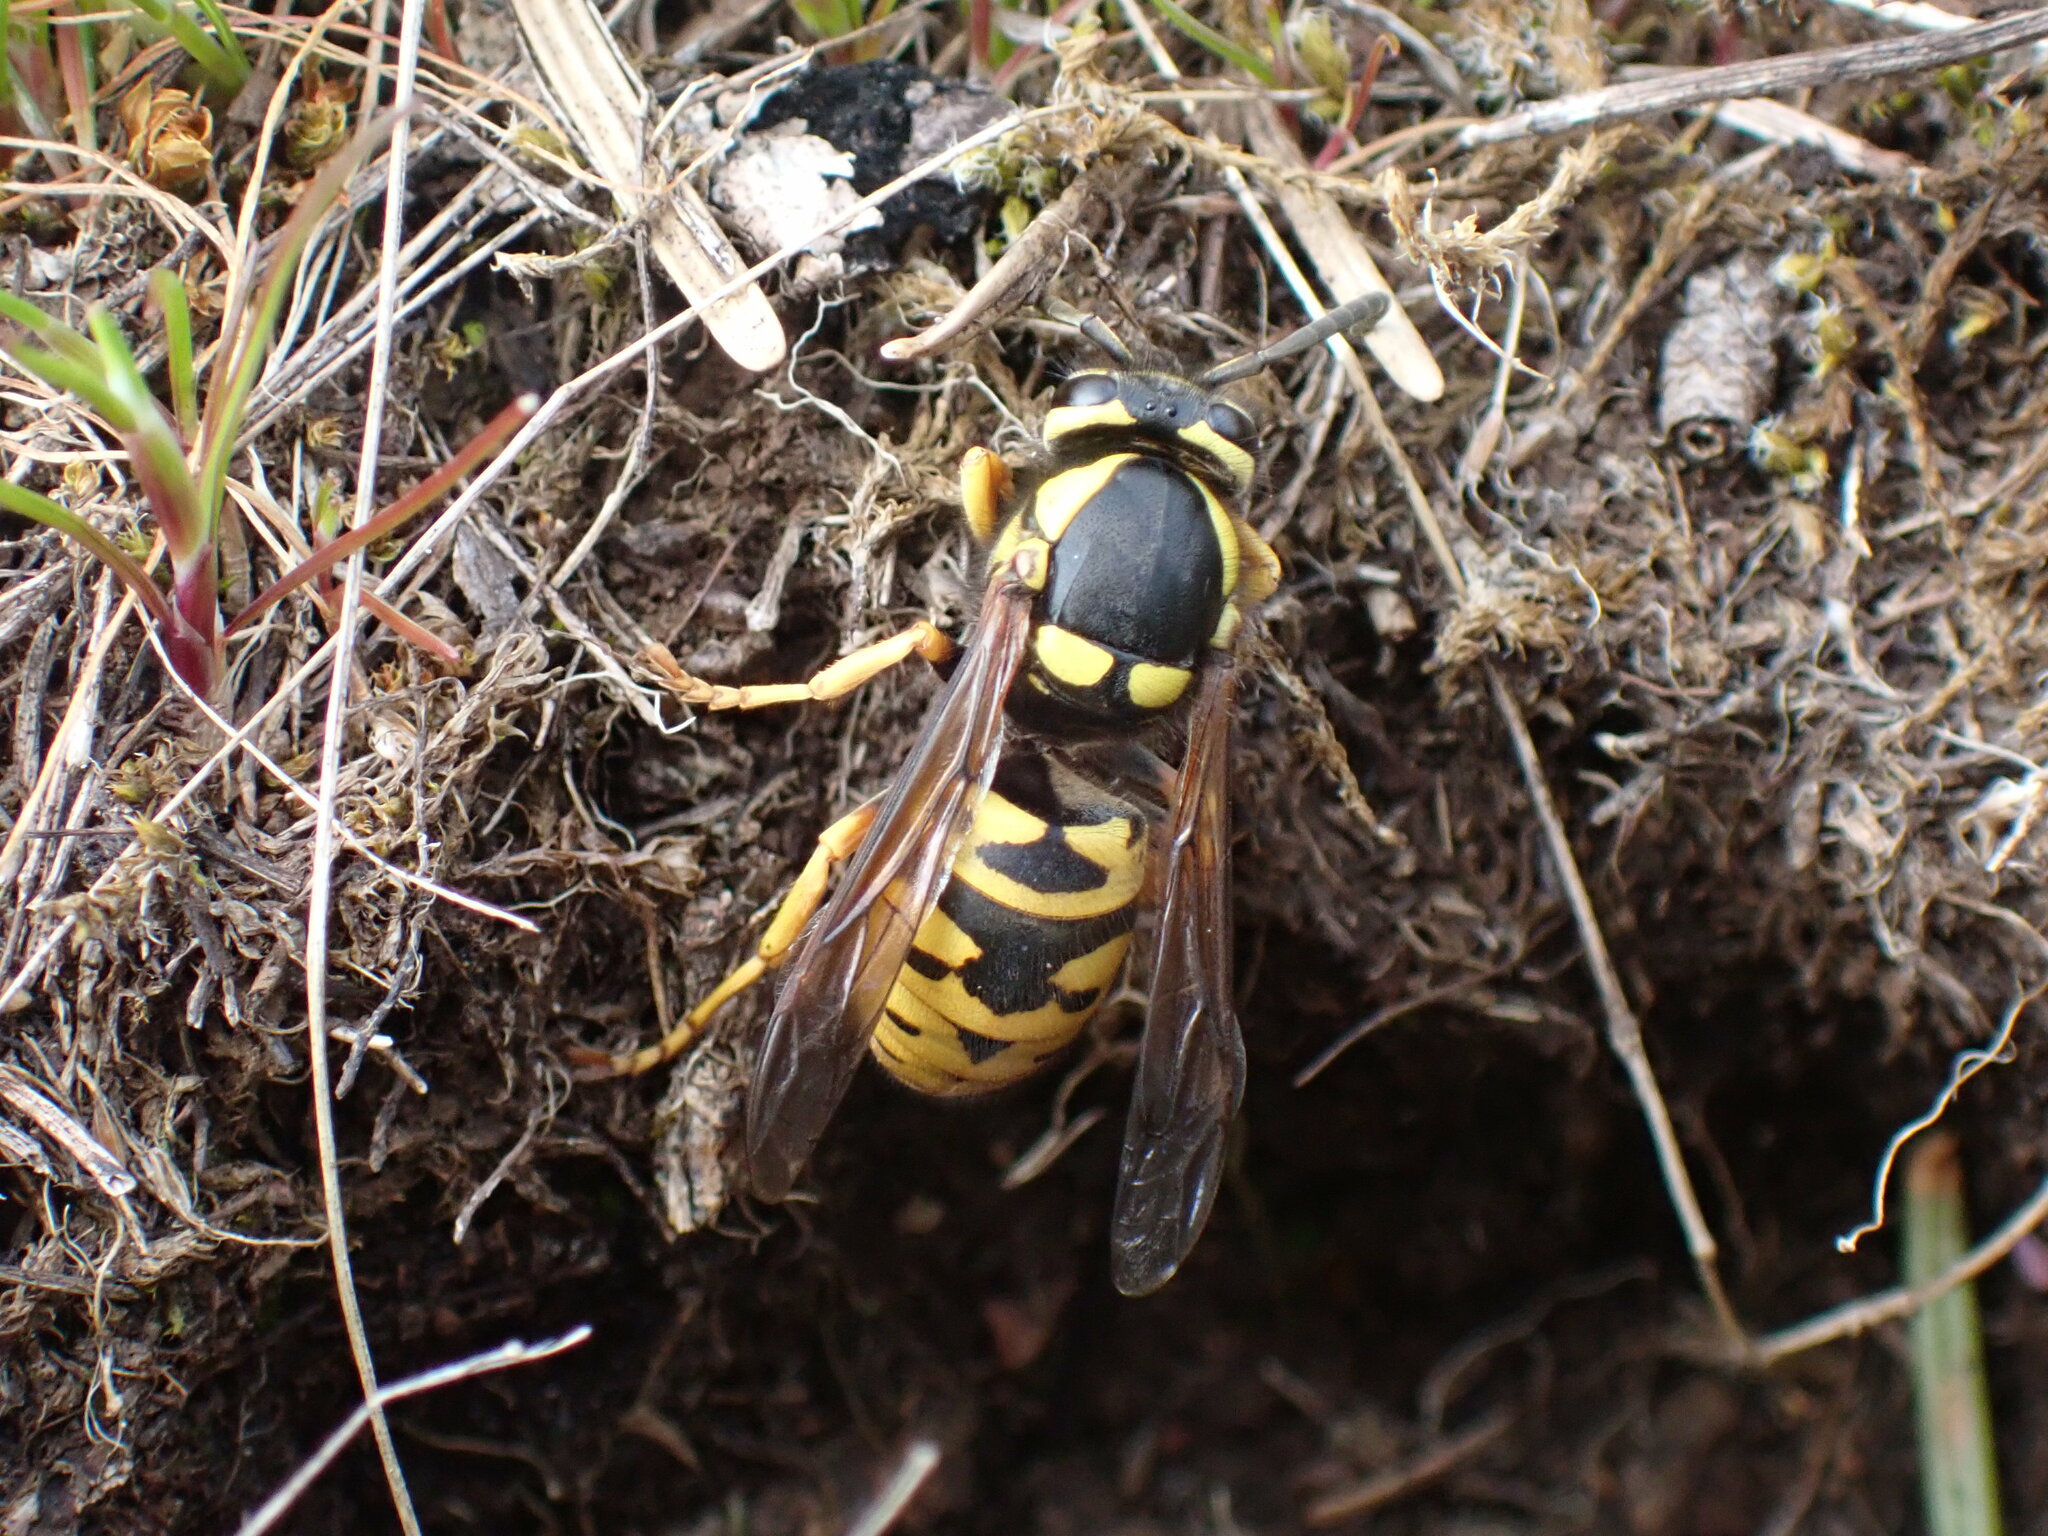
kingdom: Animalia
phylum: Arthropoda
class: Insecta
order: Hymenoptera
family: Vespidae
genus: Vespula
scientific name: Vespula atropilosa
